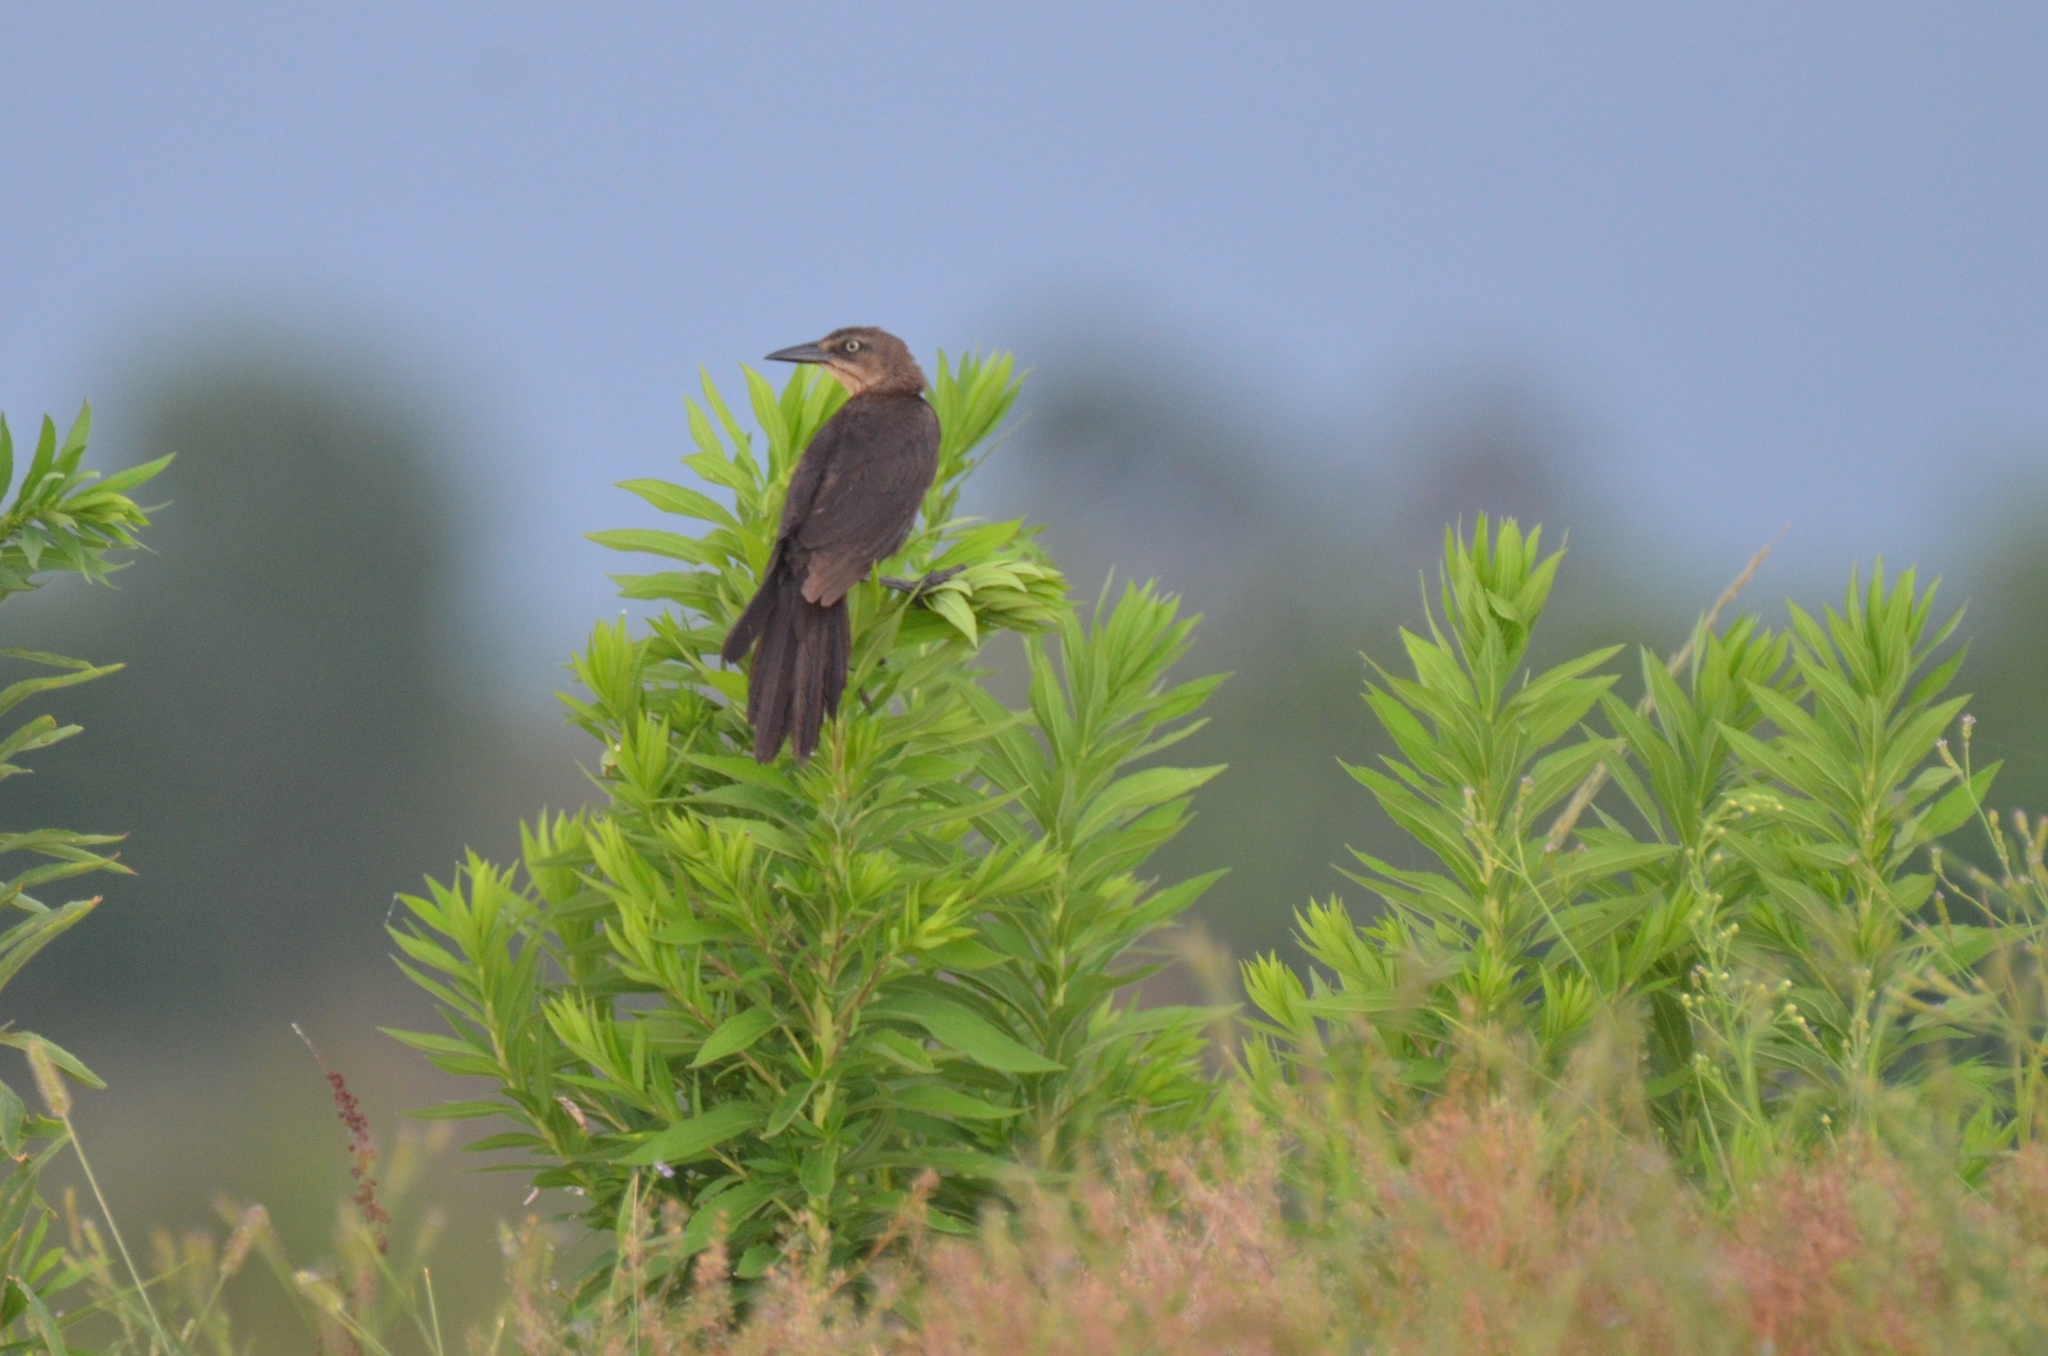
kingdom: Animalia
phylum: Chordata
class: Aves
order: Passeriformes
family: Icteridae
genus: Quiscalus
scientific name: Quiscalus mexicanus
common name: Great-tailed grackle
